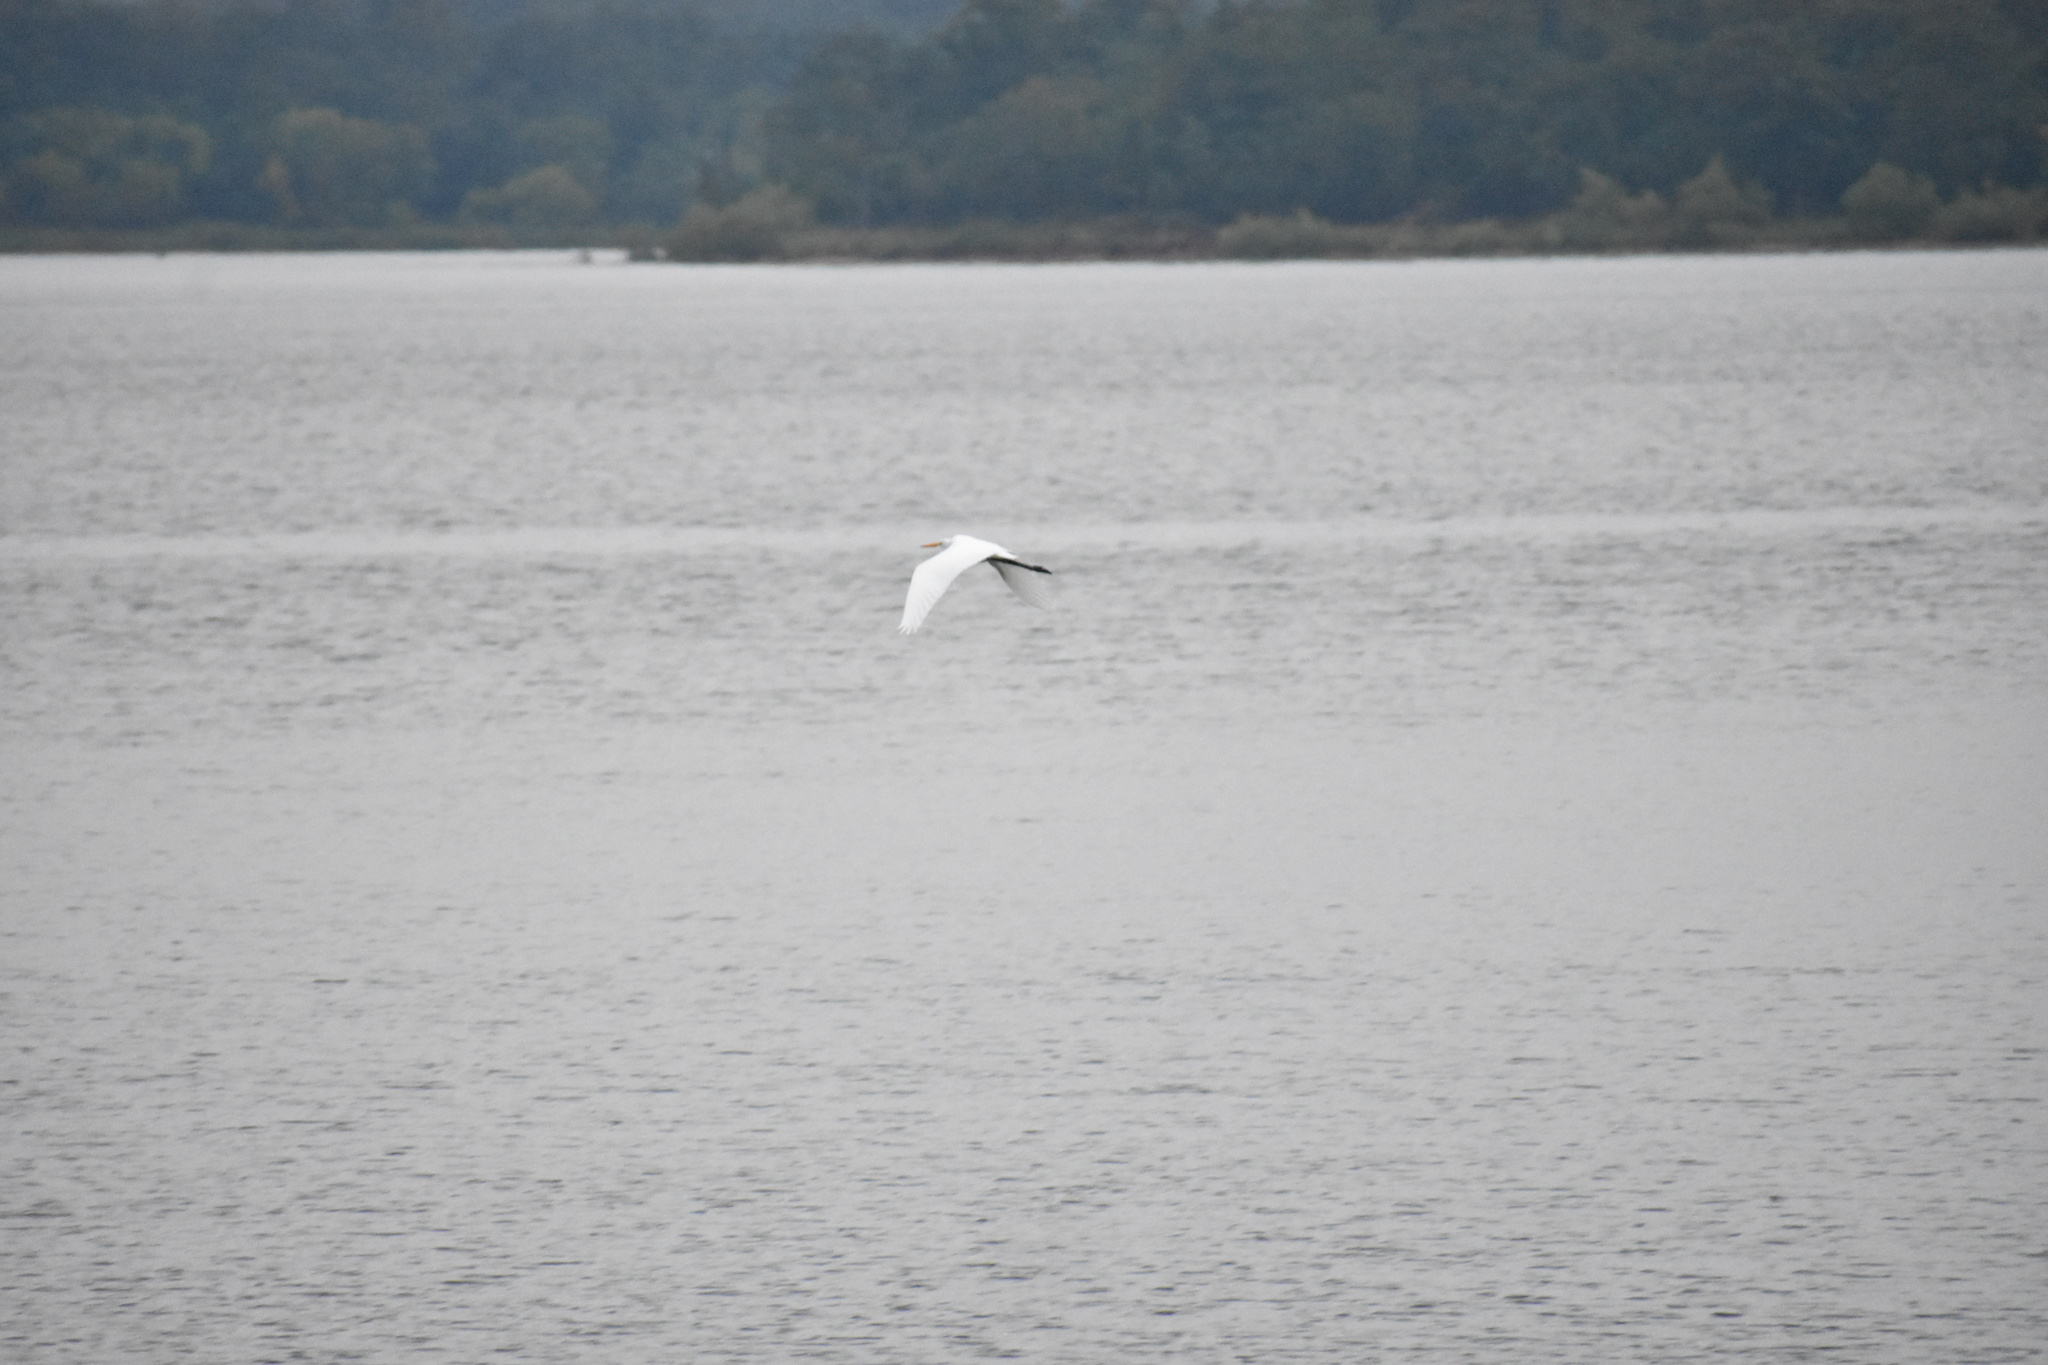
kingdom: Animalia
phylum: Chordata
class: Aves
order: Pelecaniformes
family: Ardeidae
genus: Ardea
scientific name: Ardea alba
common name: Great egret
